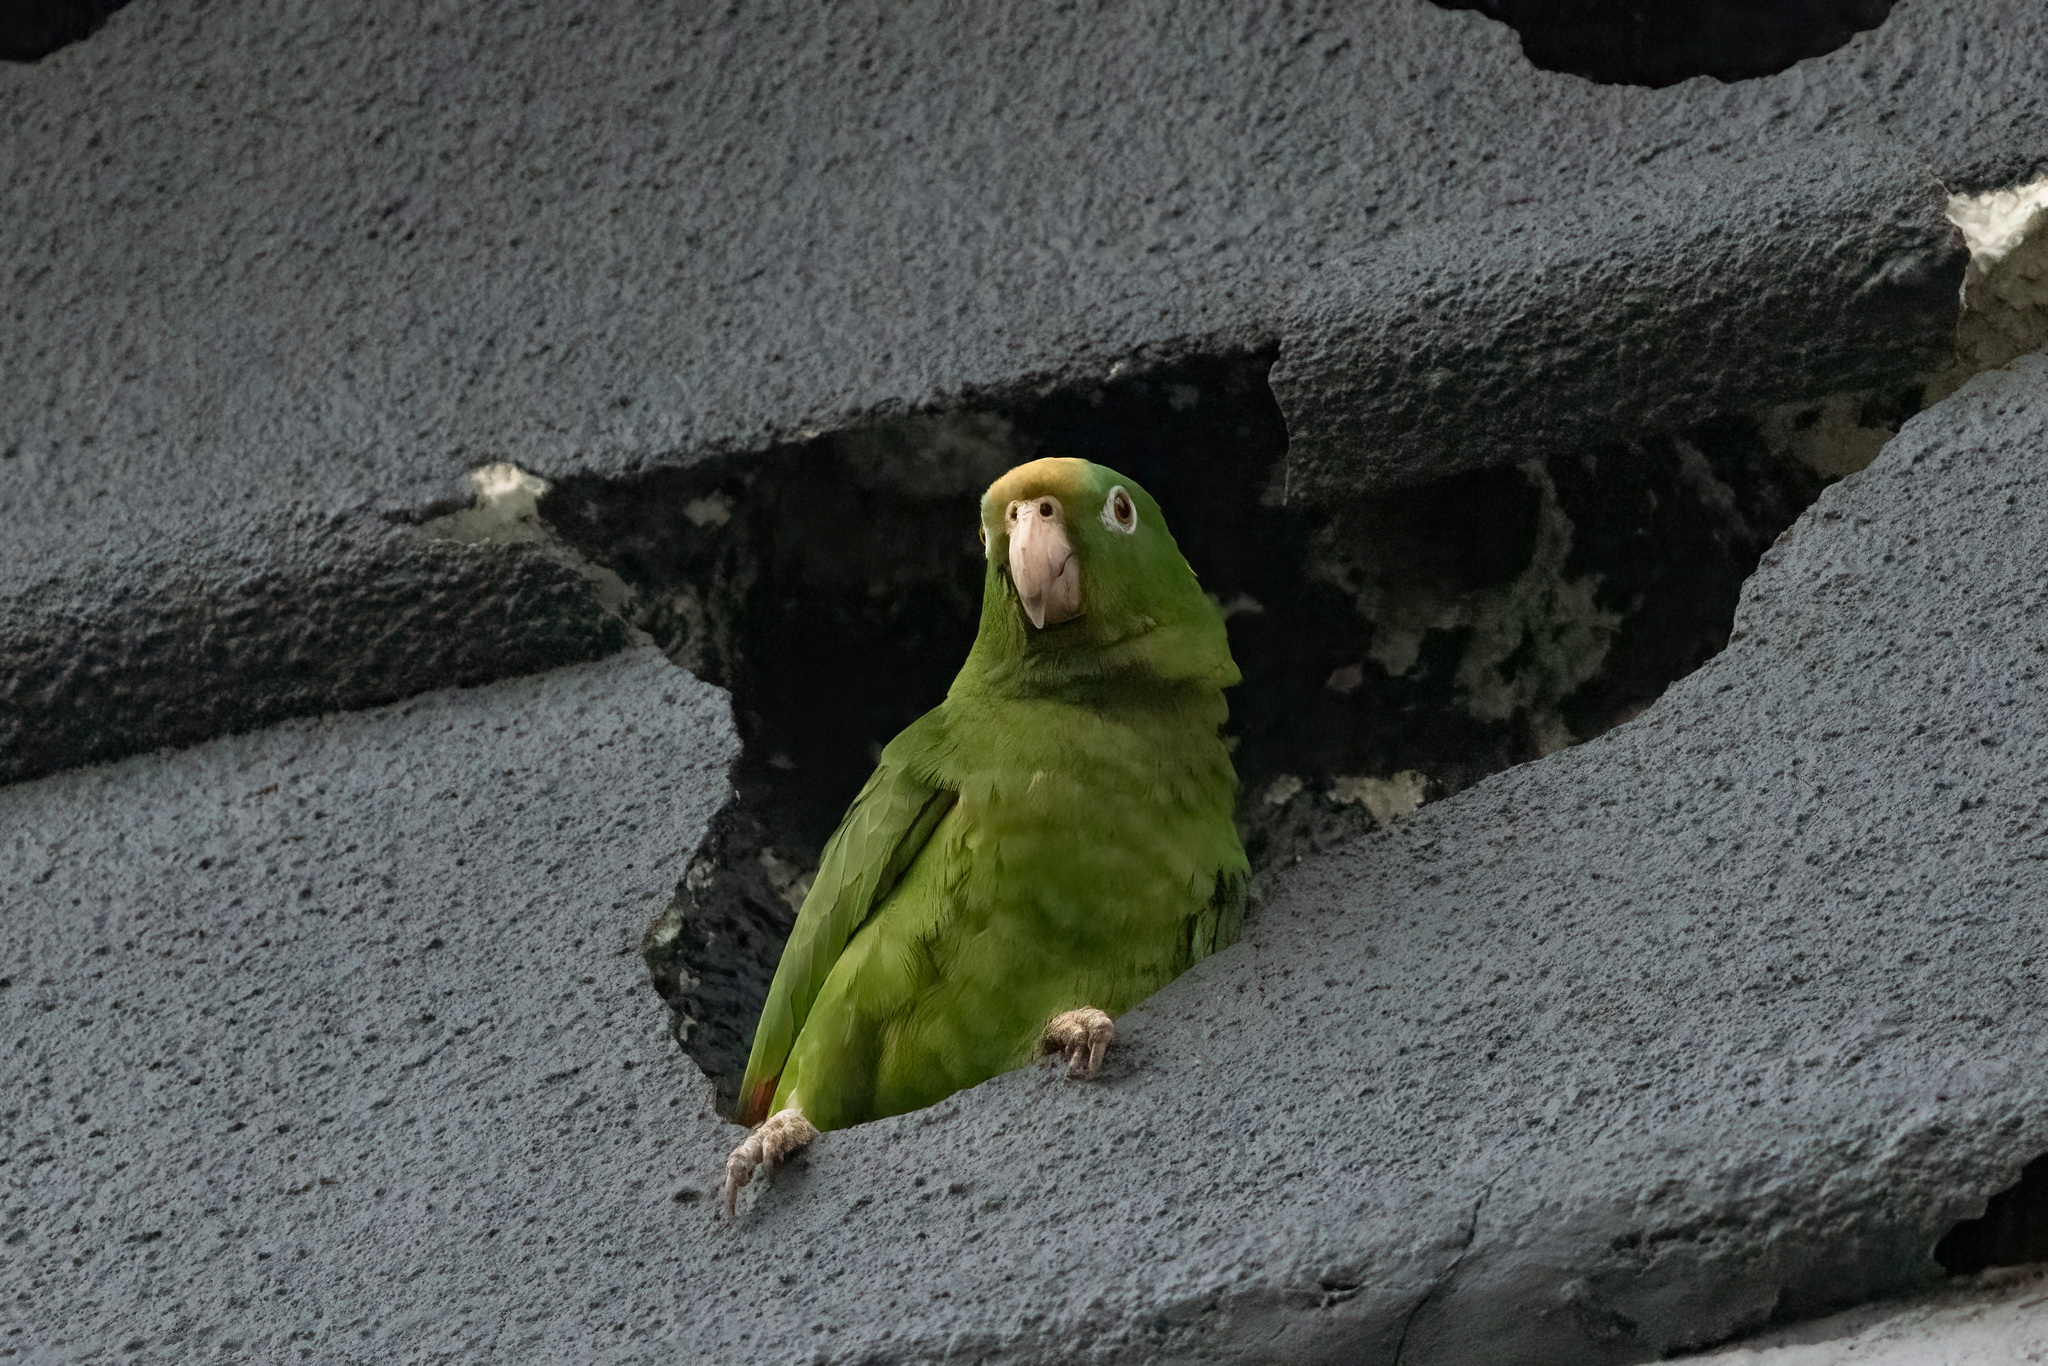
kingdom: Animalia
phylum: Chordata
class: Aves
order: Psittaciformes
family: Psittacidae
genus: Amazona
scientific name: Amazona ochrocephala
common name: Yellow-crowned amazon
